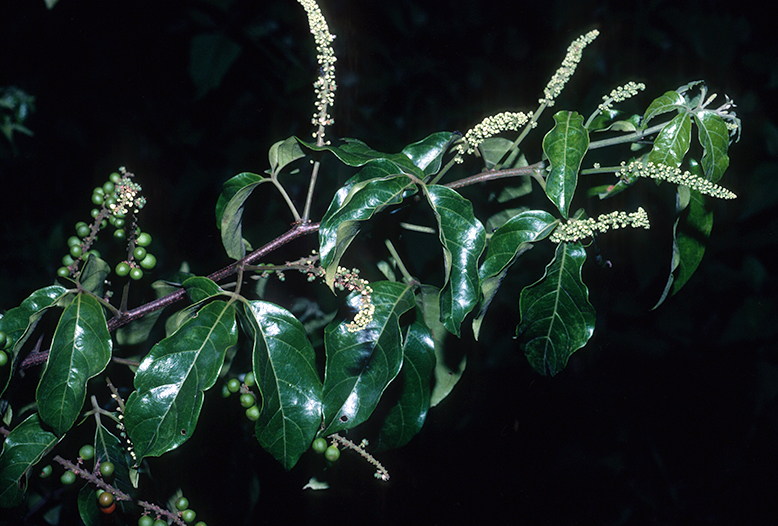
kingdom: Plantae
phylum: Tracheophyta
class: Magnoliopsida
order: Sapindales
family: Sapindaceae
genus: Allophylus
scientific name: Allophylus cobbe
